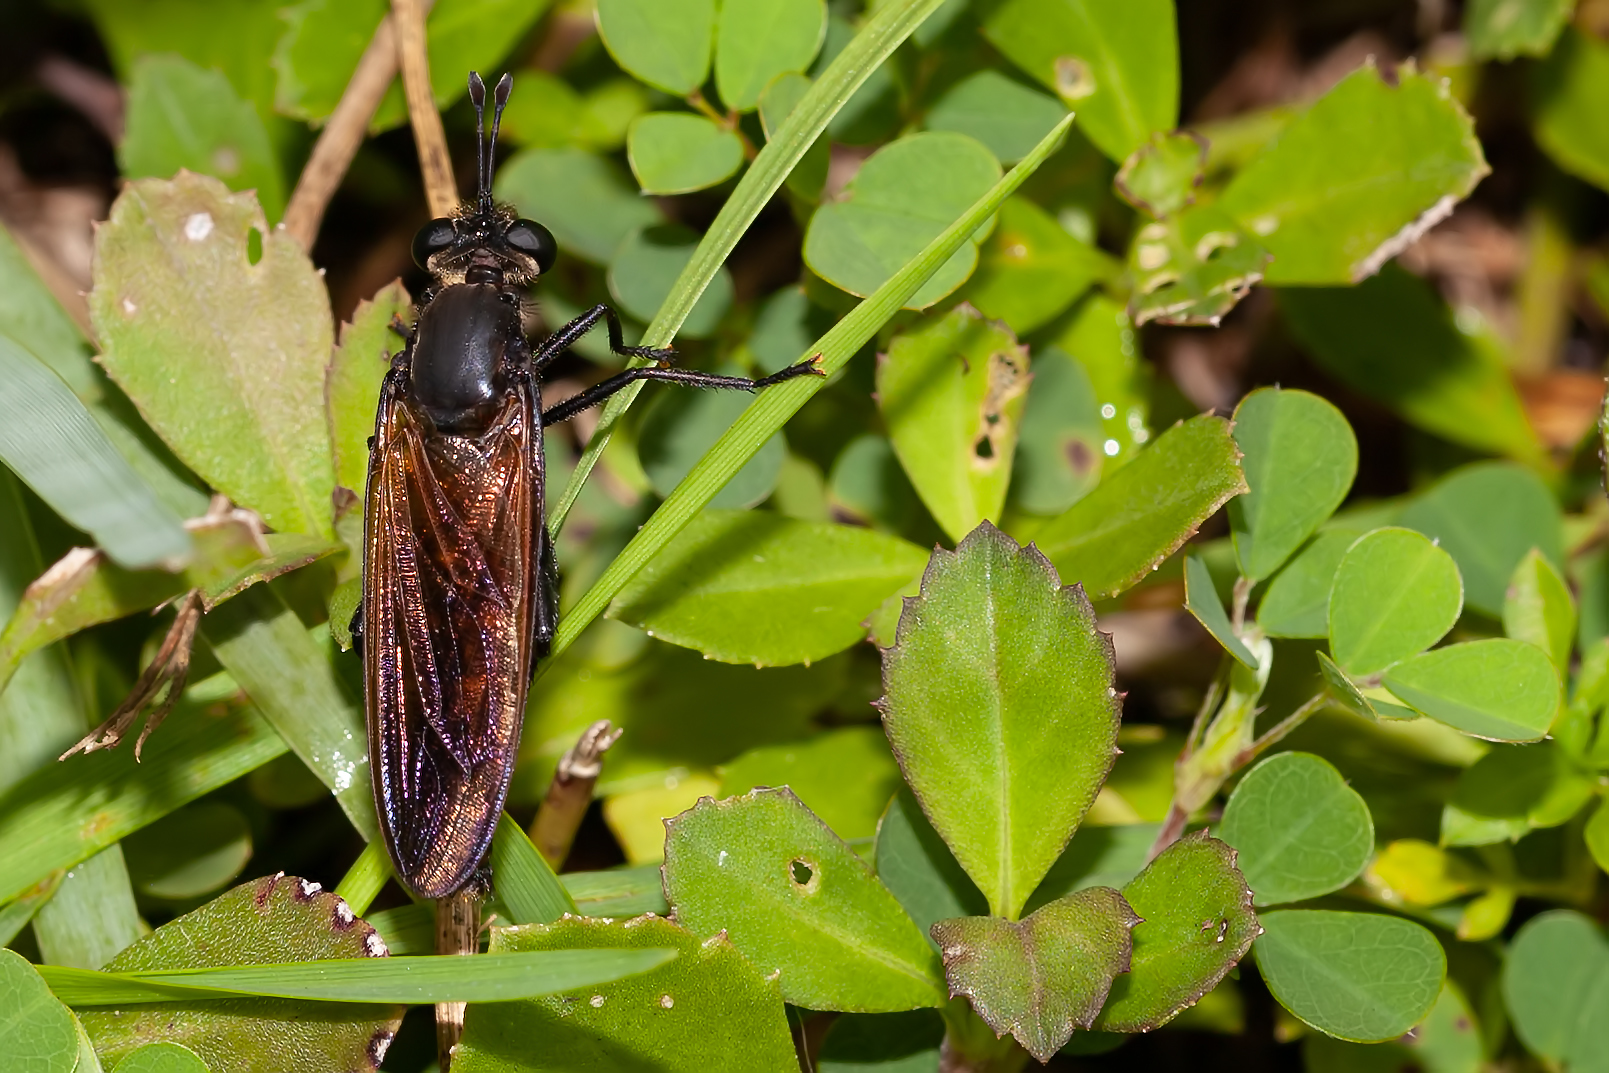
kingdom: Animalia
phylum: Arthropoda
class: Insecta
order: Diptera
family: Mydidae
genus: Mydas
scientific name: Mydas maculiventris
